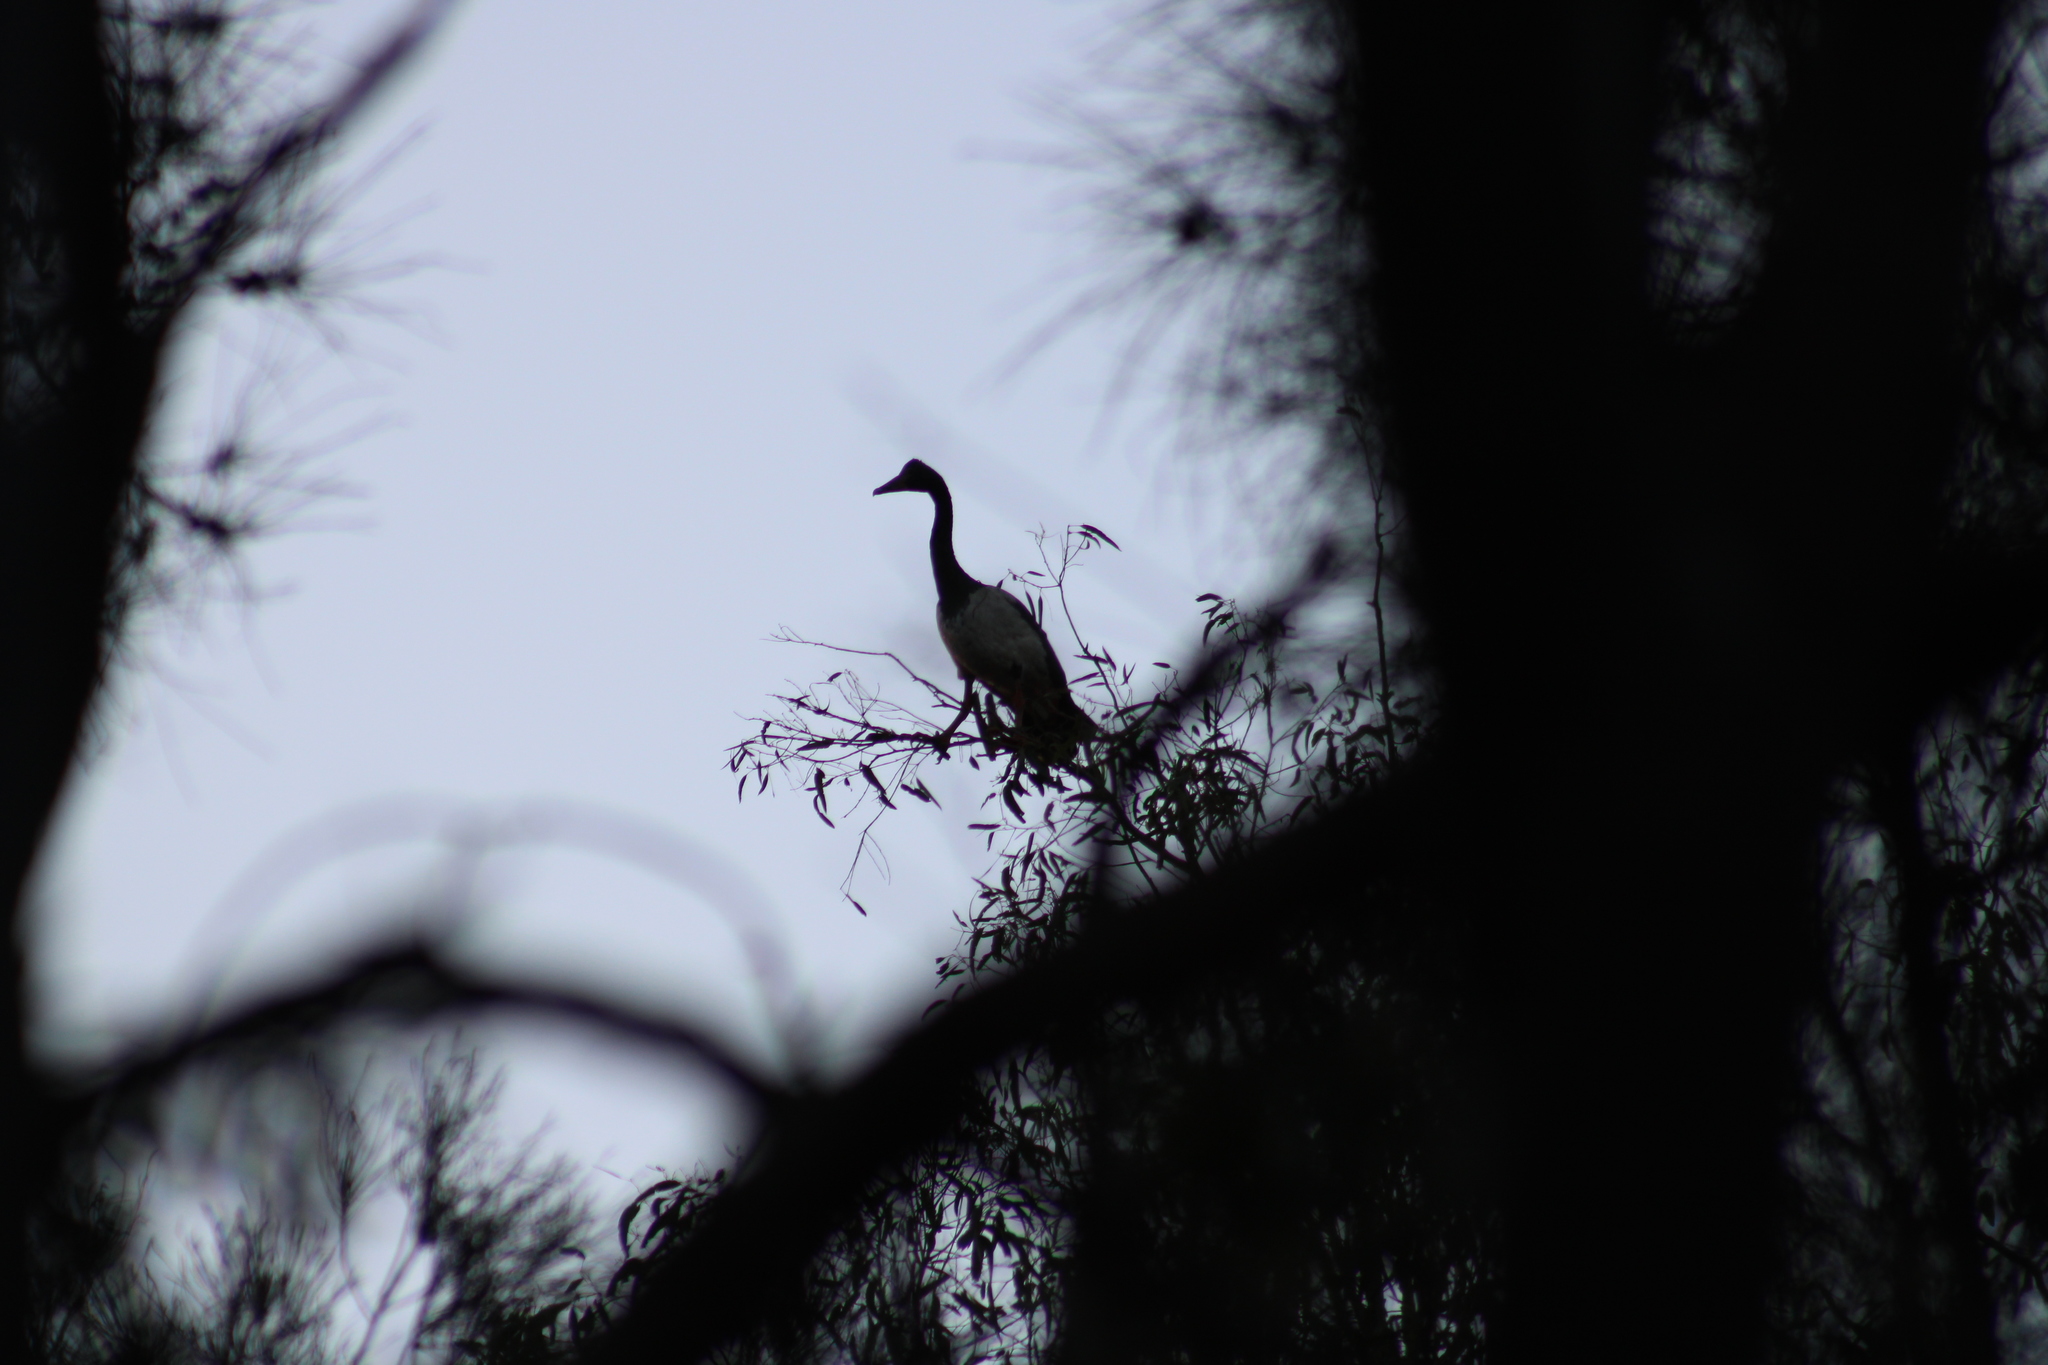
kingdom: Animalia
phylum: Chordata
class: Aves
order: Anseriformes
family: Anseranatidae
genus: Anseranas
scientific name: Anseranas semipalmata
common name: Magpie goose
